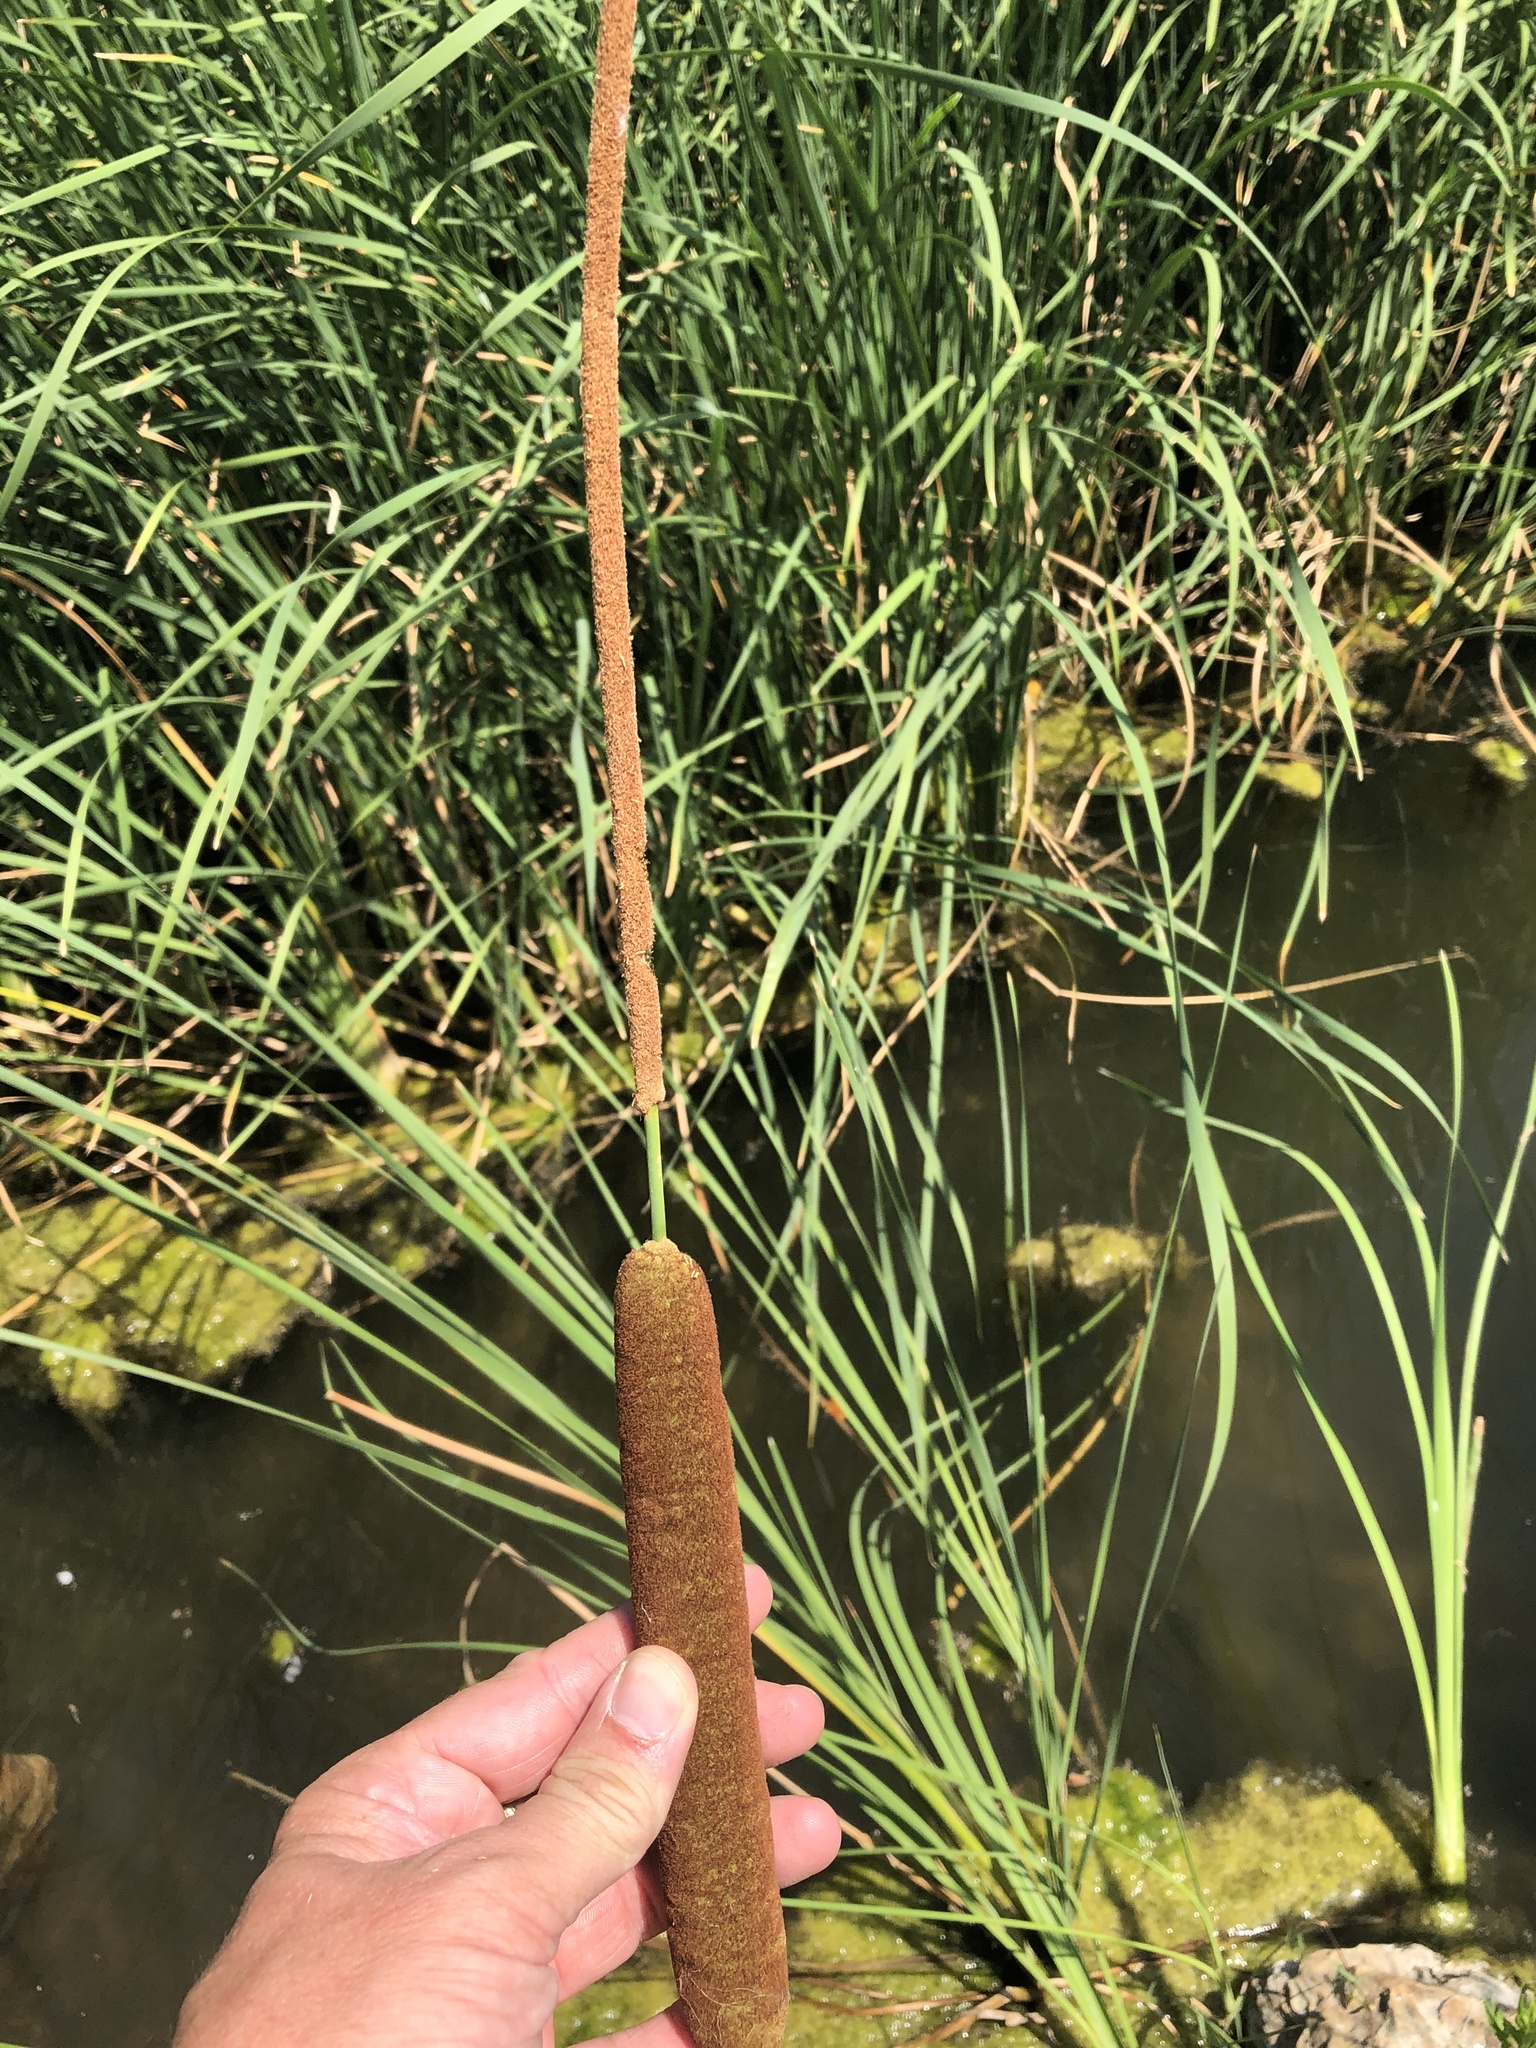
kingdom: Plantae
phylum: Tracheophyta
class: Liliopsida
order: Poales
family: Typhaceae
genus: Typha
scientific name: Typha domingensis
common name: Southern cattail
